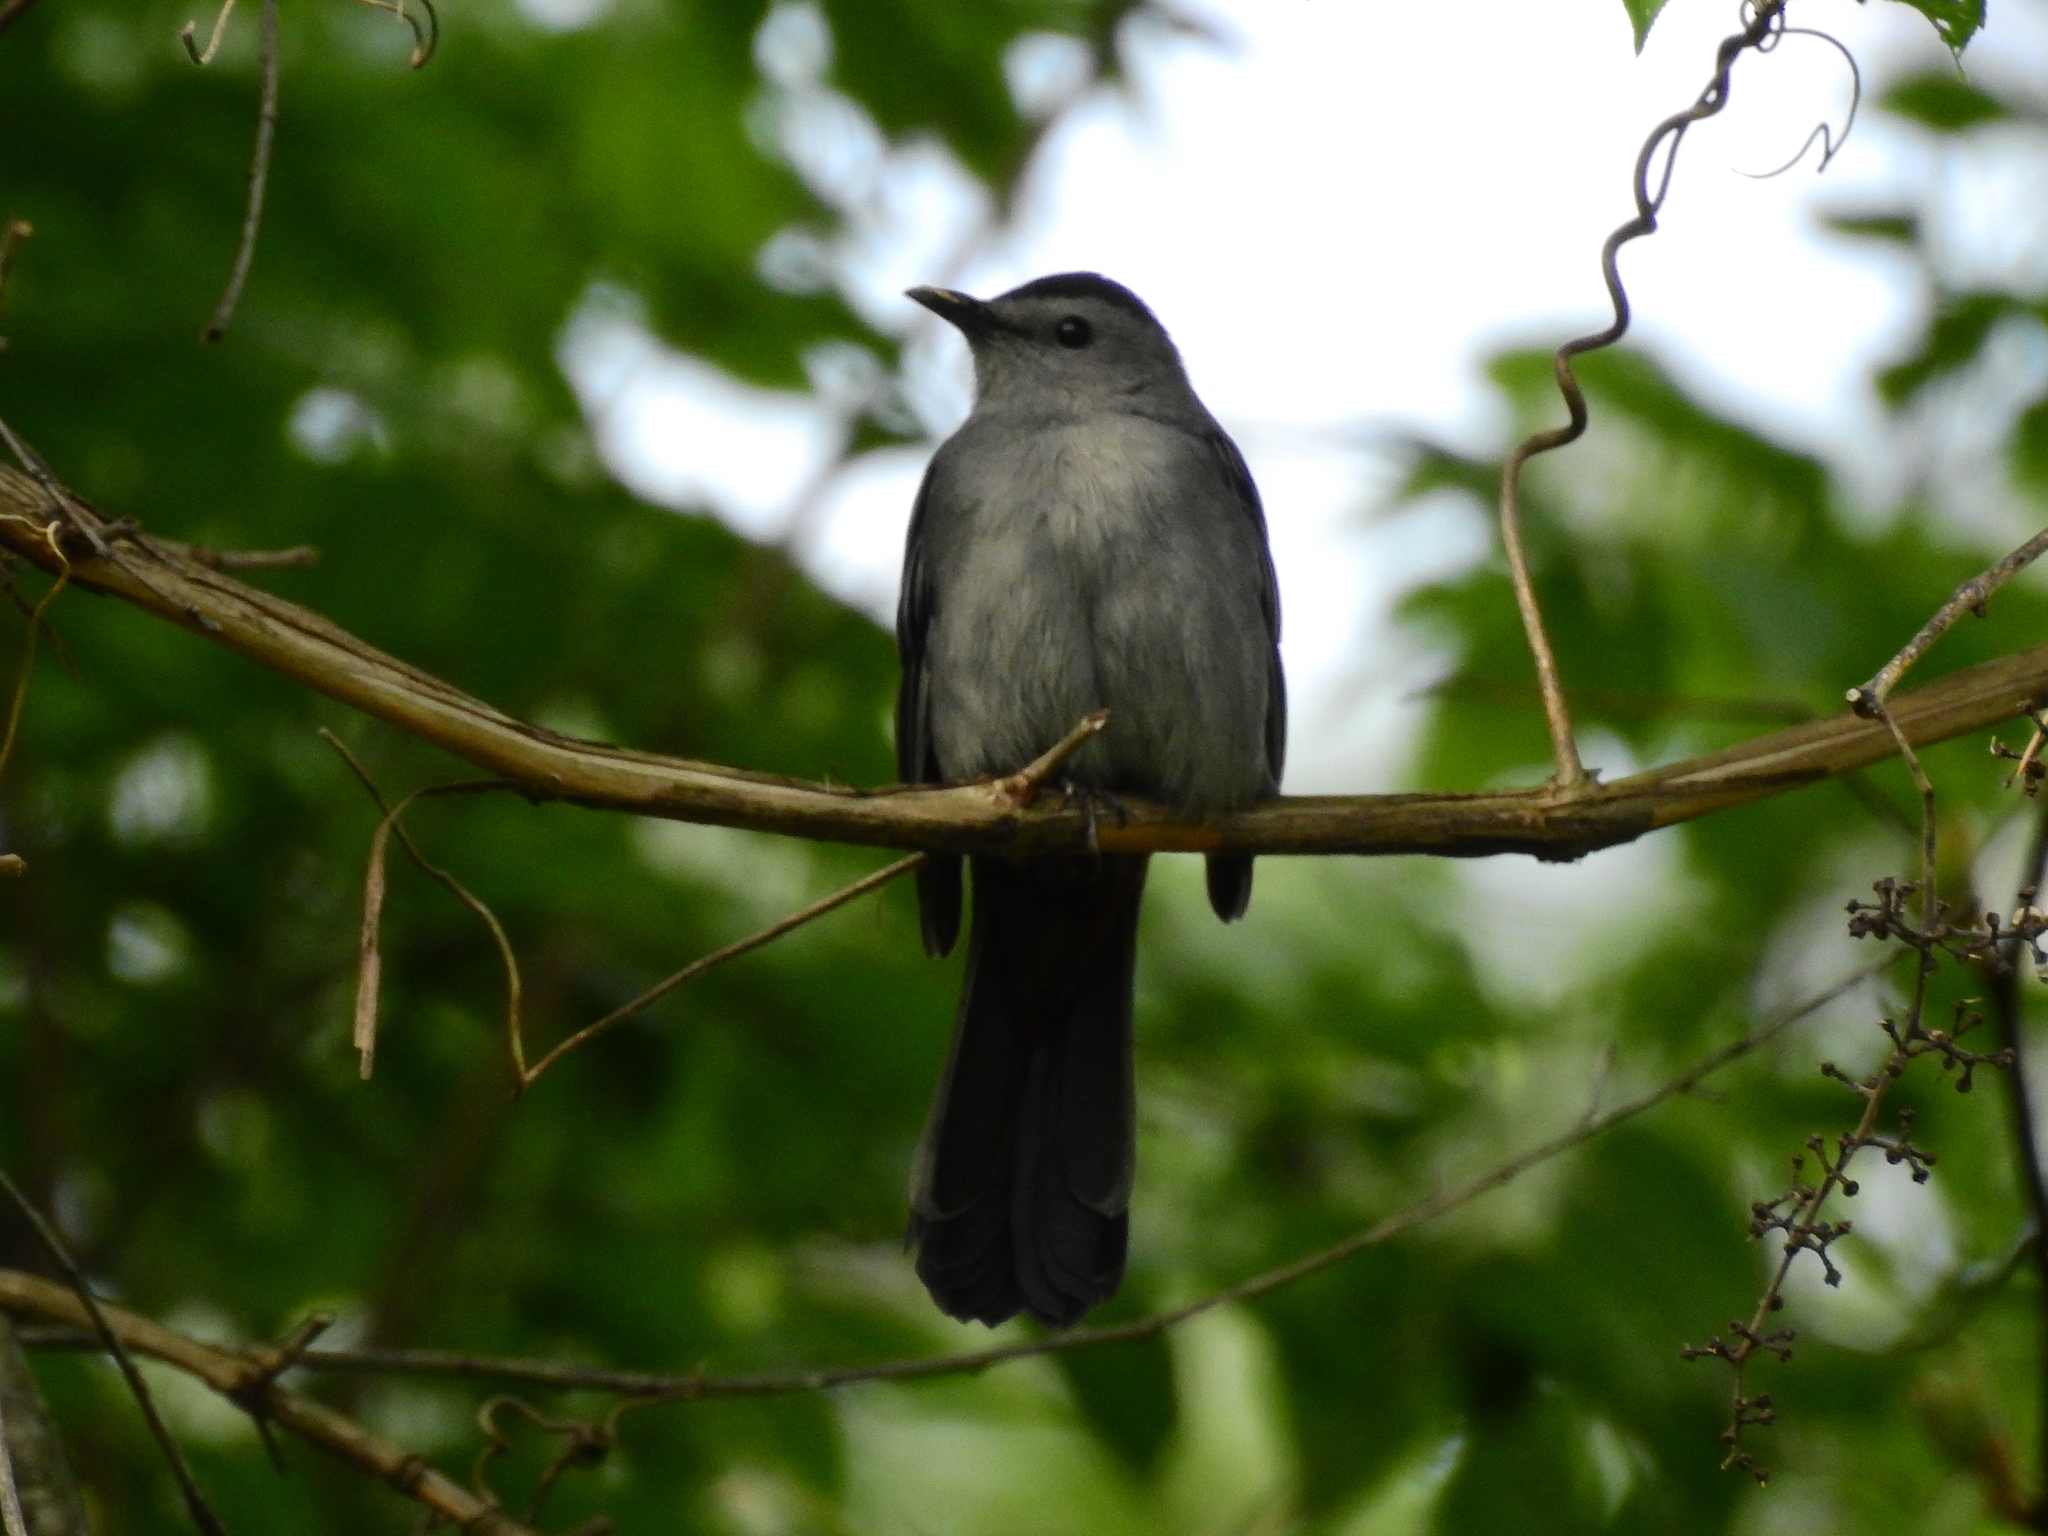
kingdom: Animalia
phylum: Chordata
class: Aves
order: Passeriformes
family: Mimidae
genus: Dumetella
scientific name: Dumetella carolinensis
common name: Gray catbird
